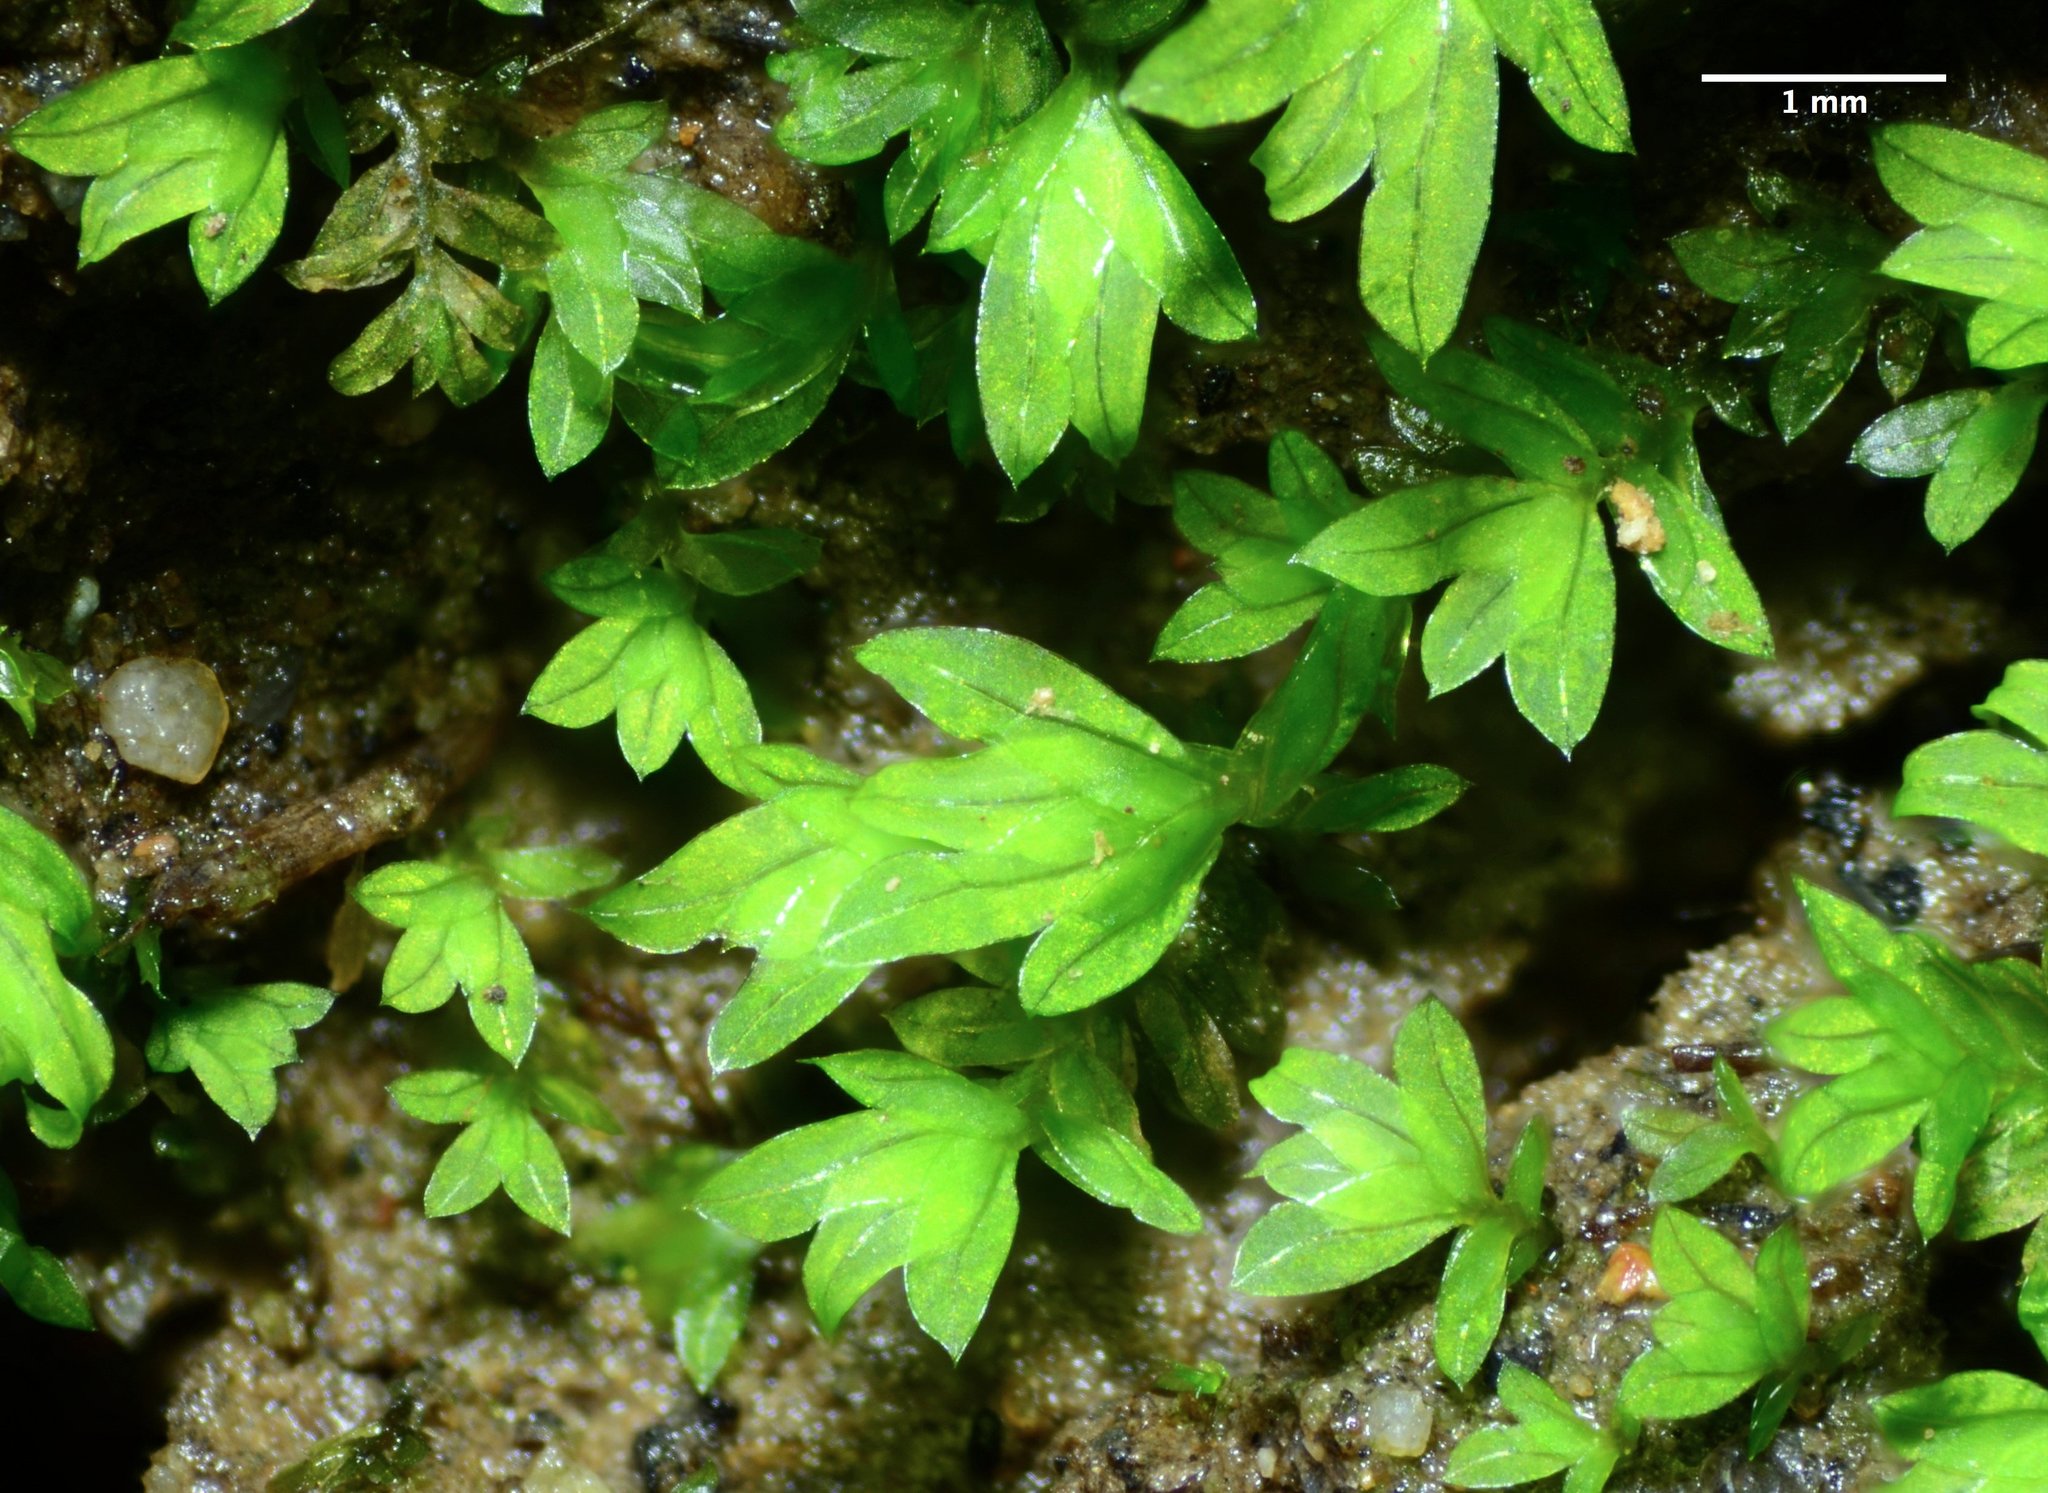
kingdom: Plantae
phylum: Bryophyta
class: Bryopsida
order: Dicranales
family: Fissidentaceae
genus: Fissidens
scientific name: Fissidens bryoides
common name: Lesser pocket moss
